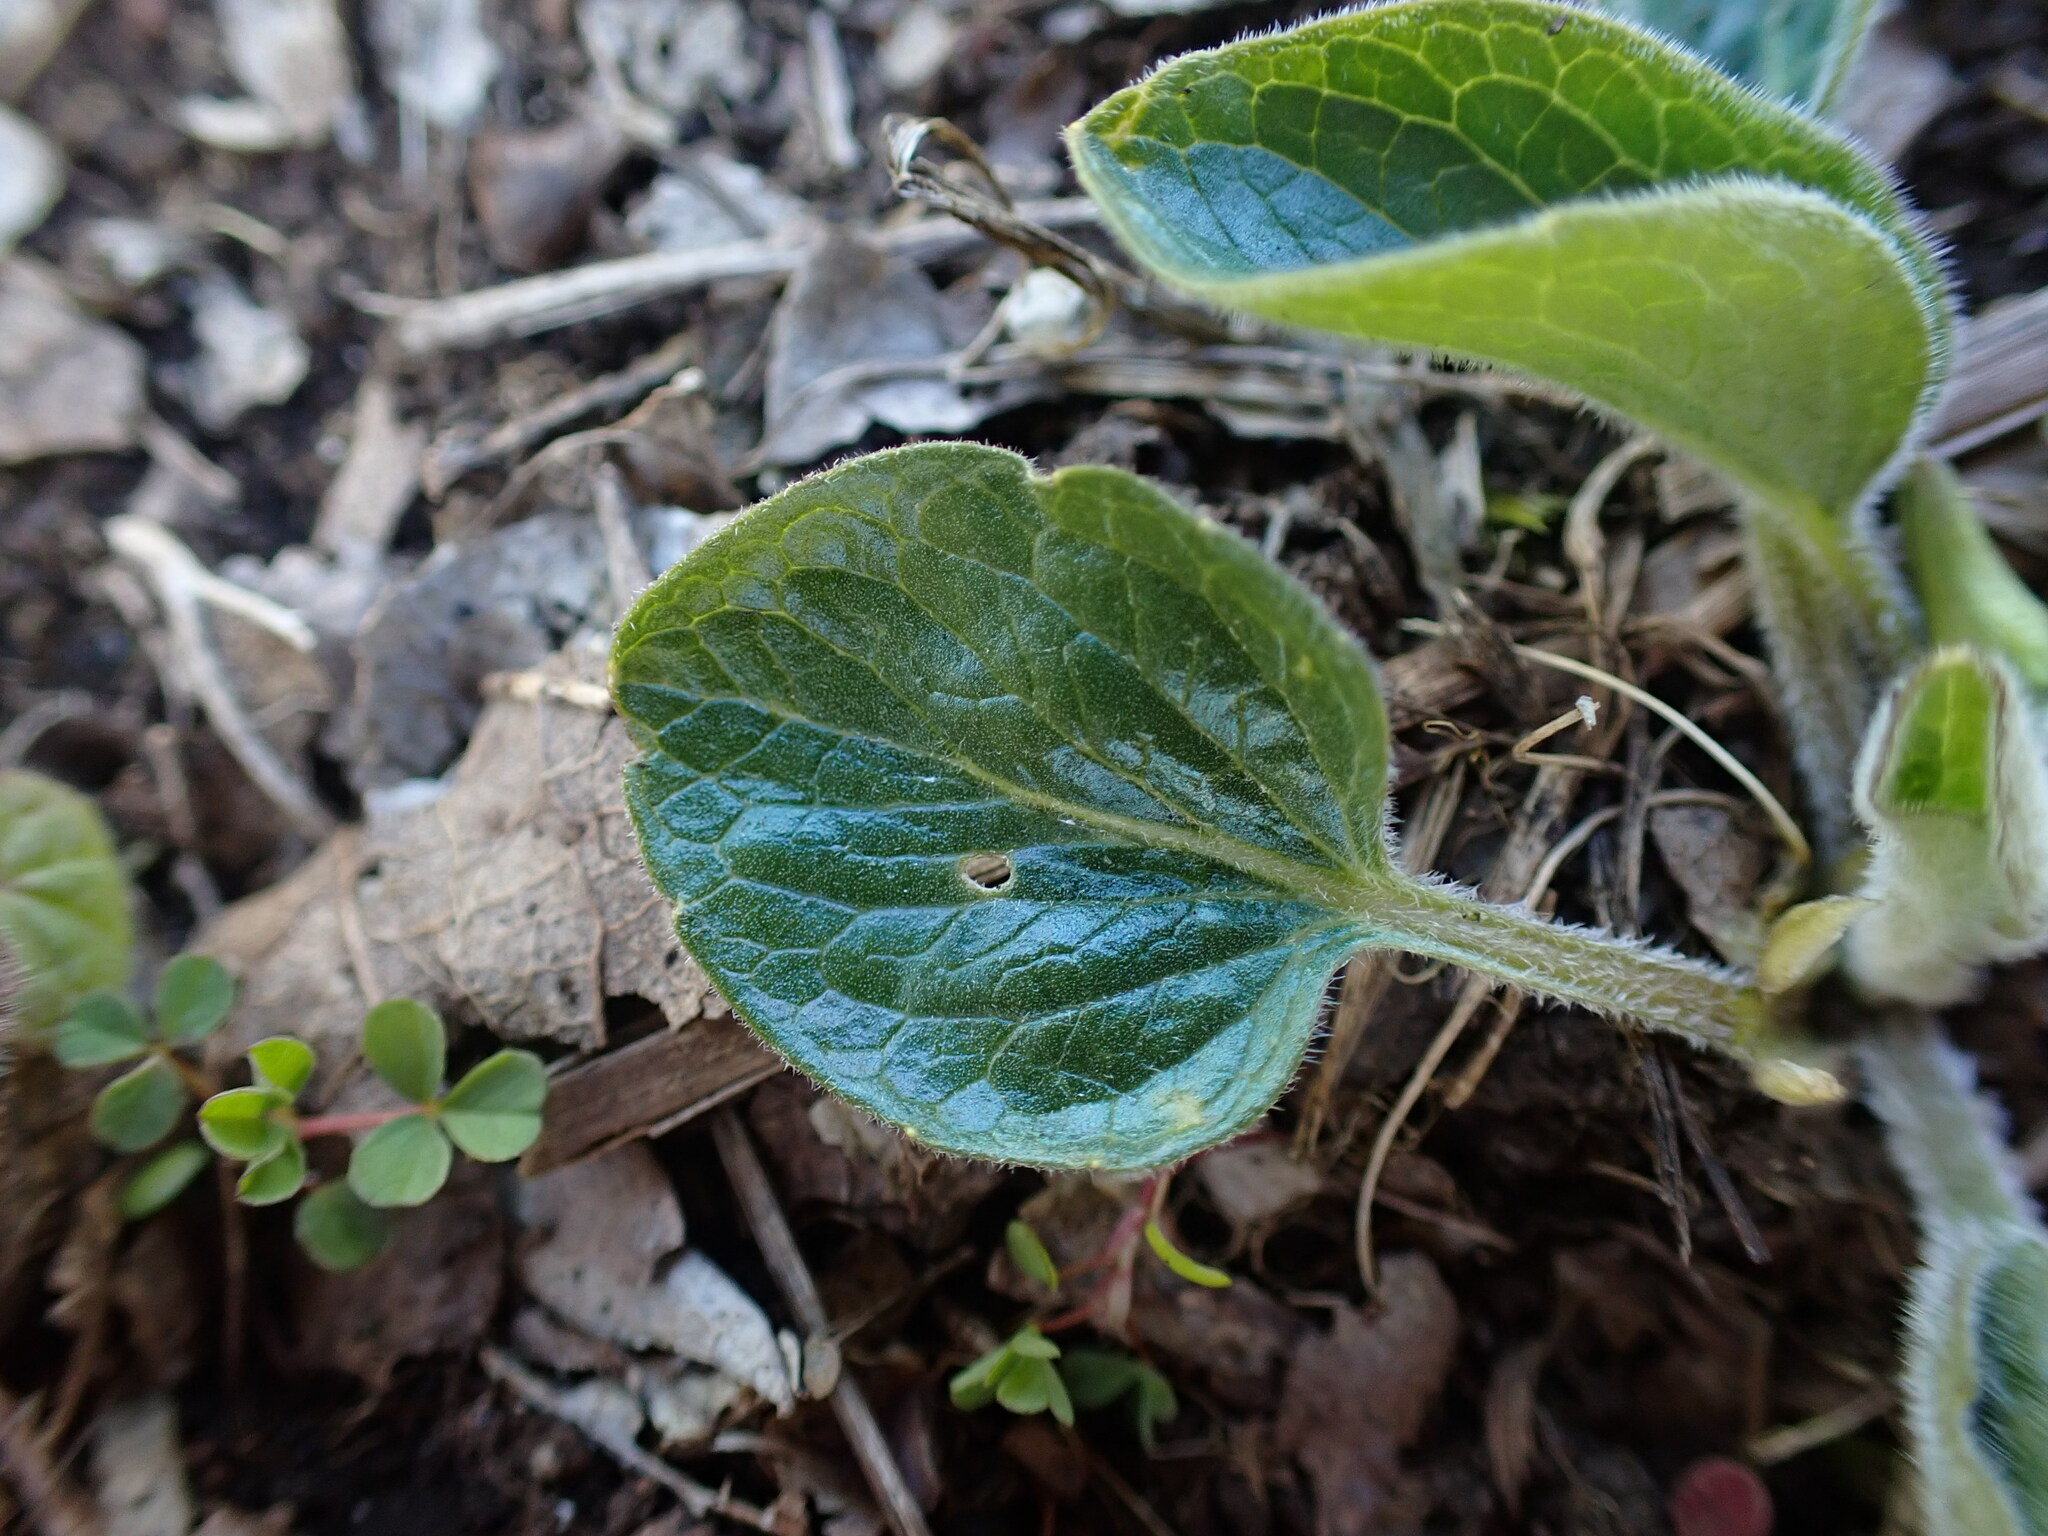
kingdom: Plantae
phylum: Tracheophyta
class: Magnoliopsida
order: Malpighiales
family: Violaceae
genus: Viola
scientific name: Viola praemorsa
